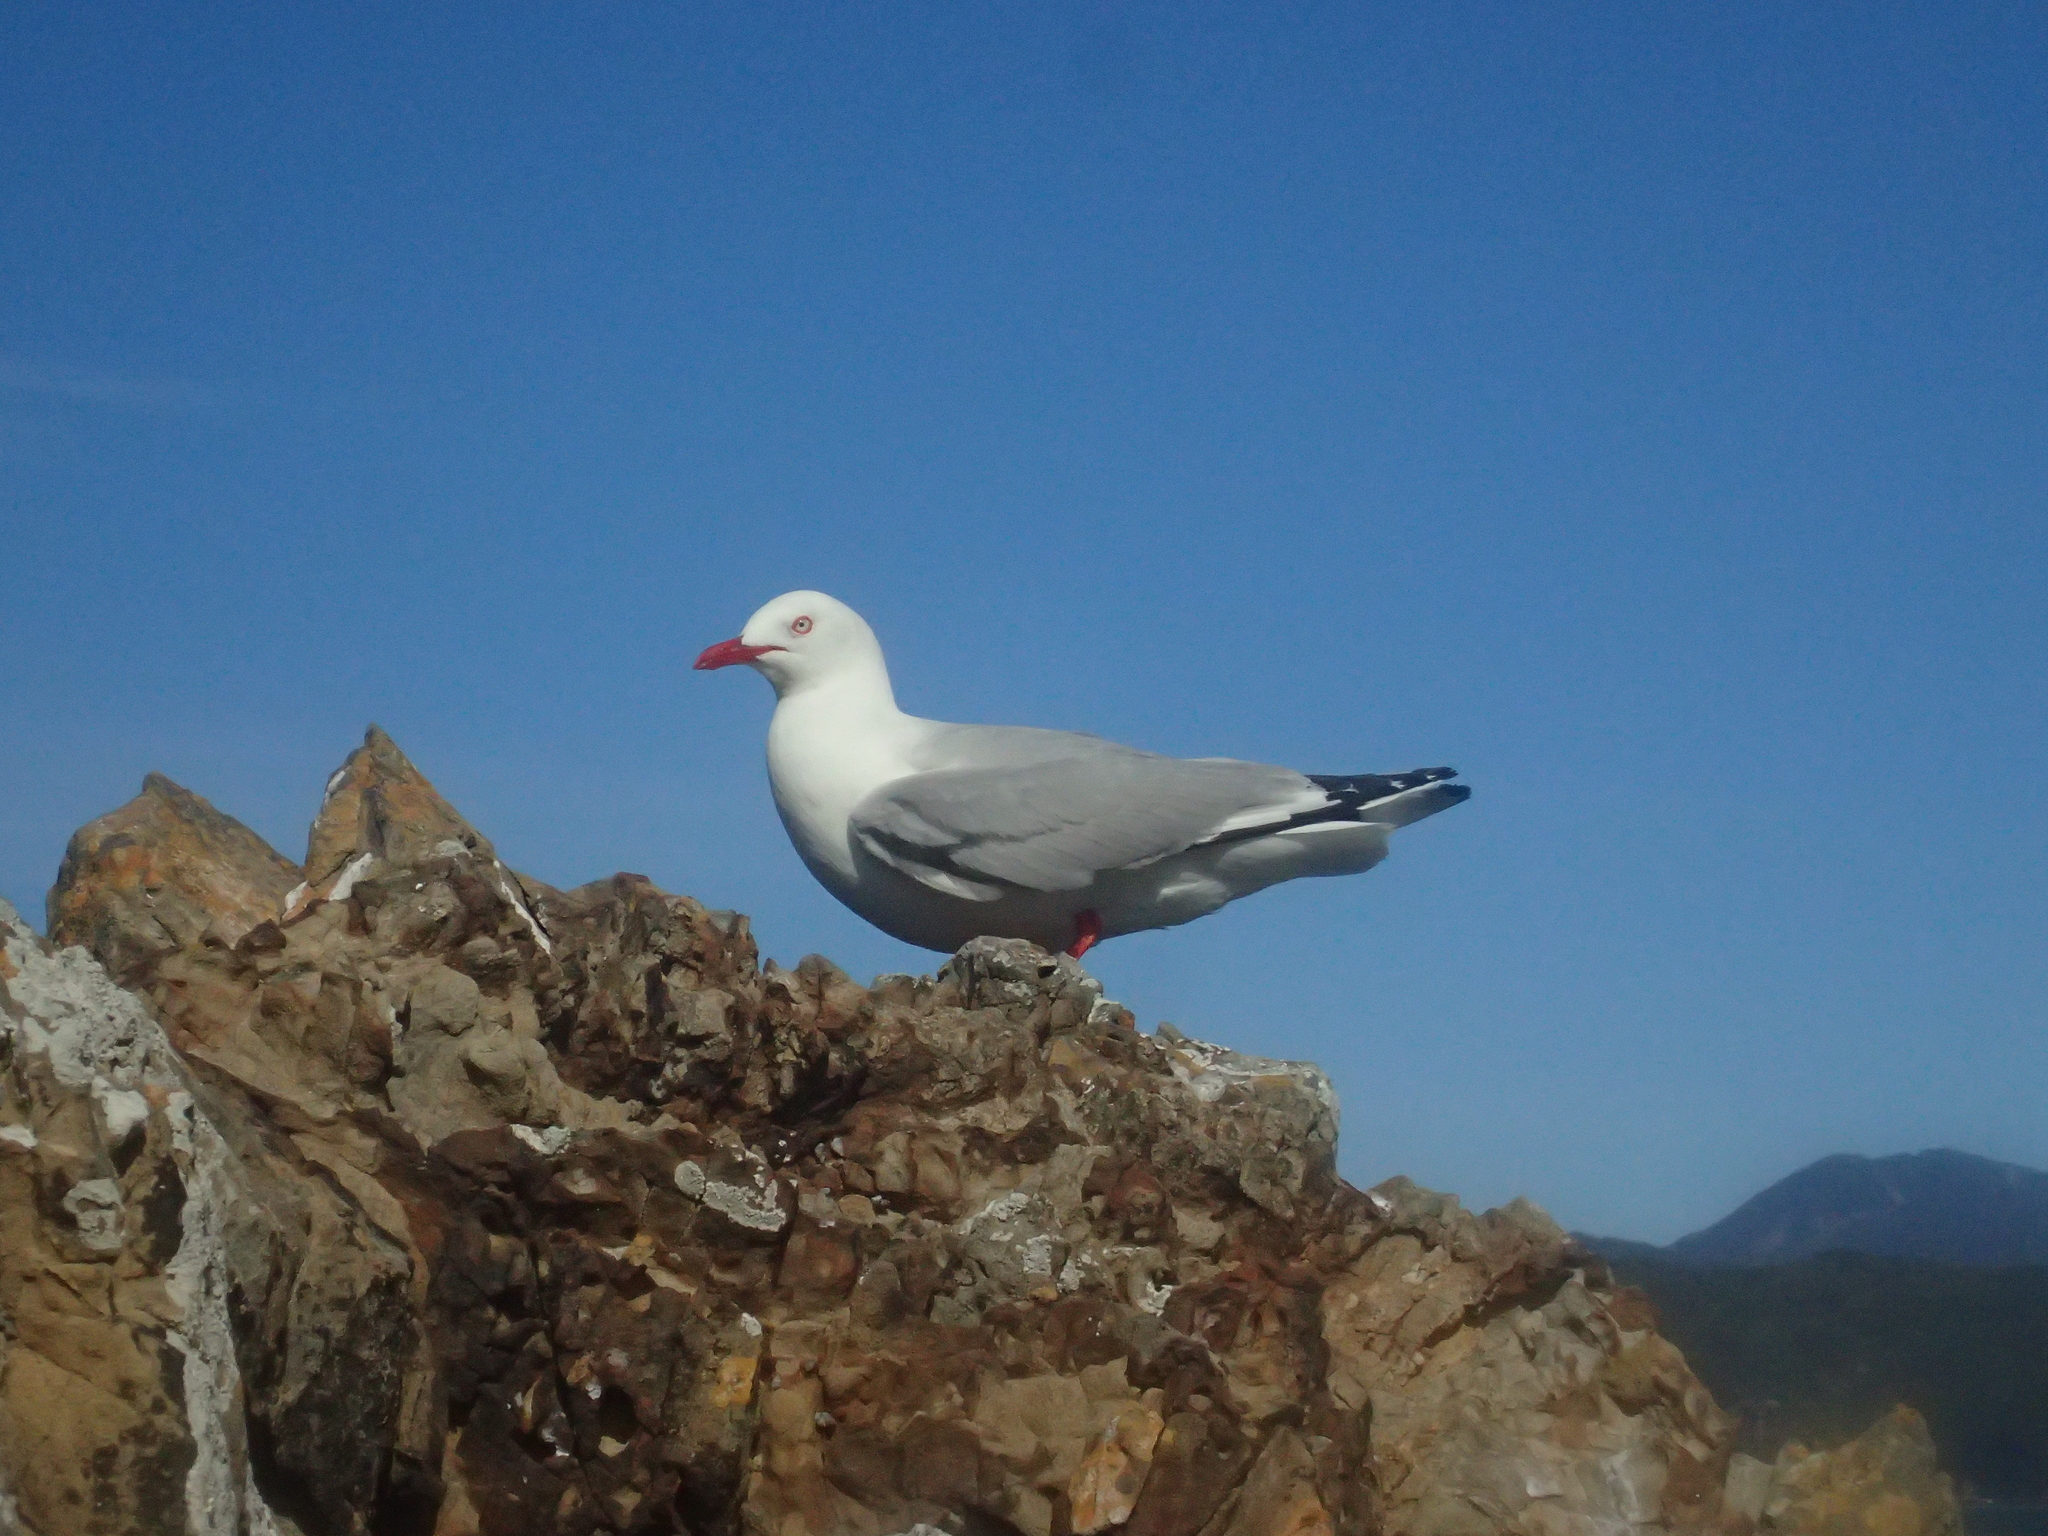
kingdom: Animalia
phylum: Chordata
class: Aves
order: Charadriiformes
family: Laridae
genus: Chroicocephalus
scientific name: Chroicocephalus novaehollandiae
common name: Silver gull
